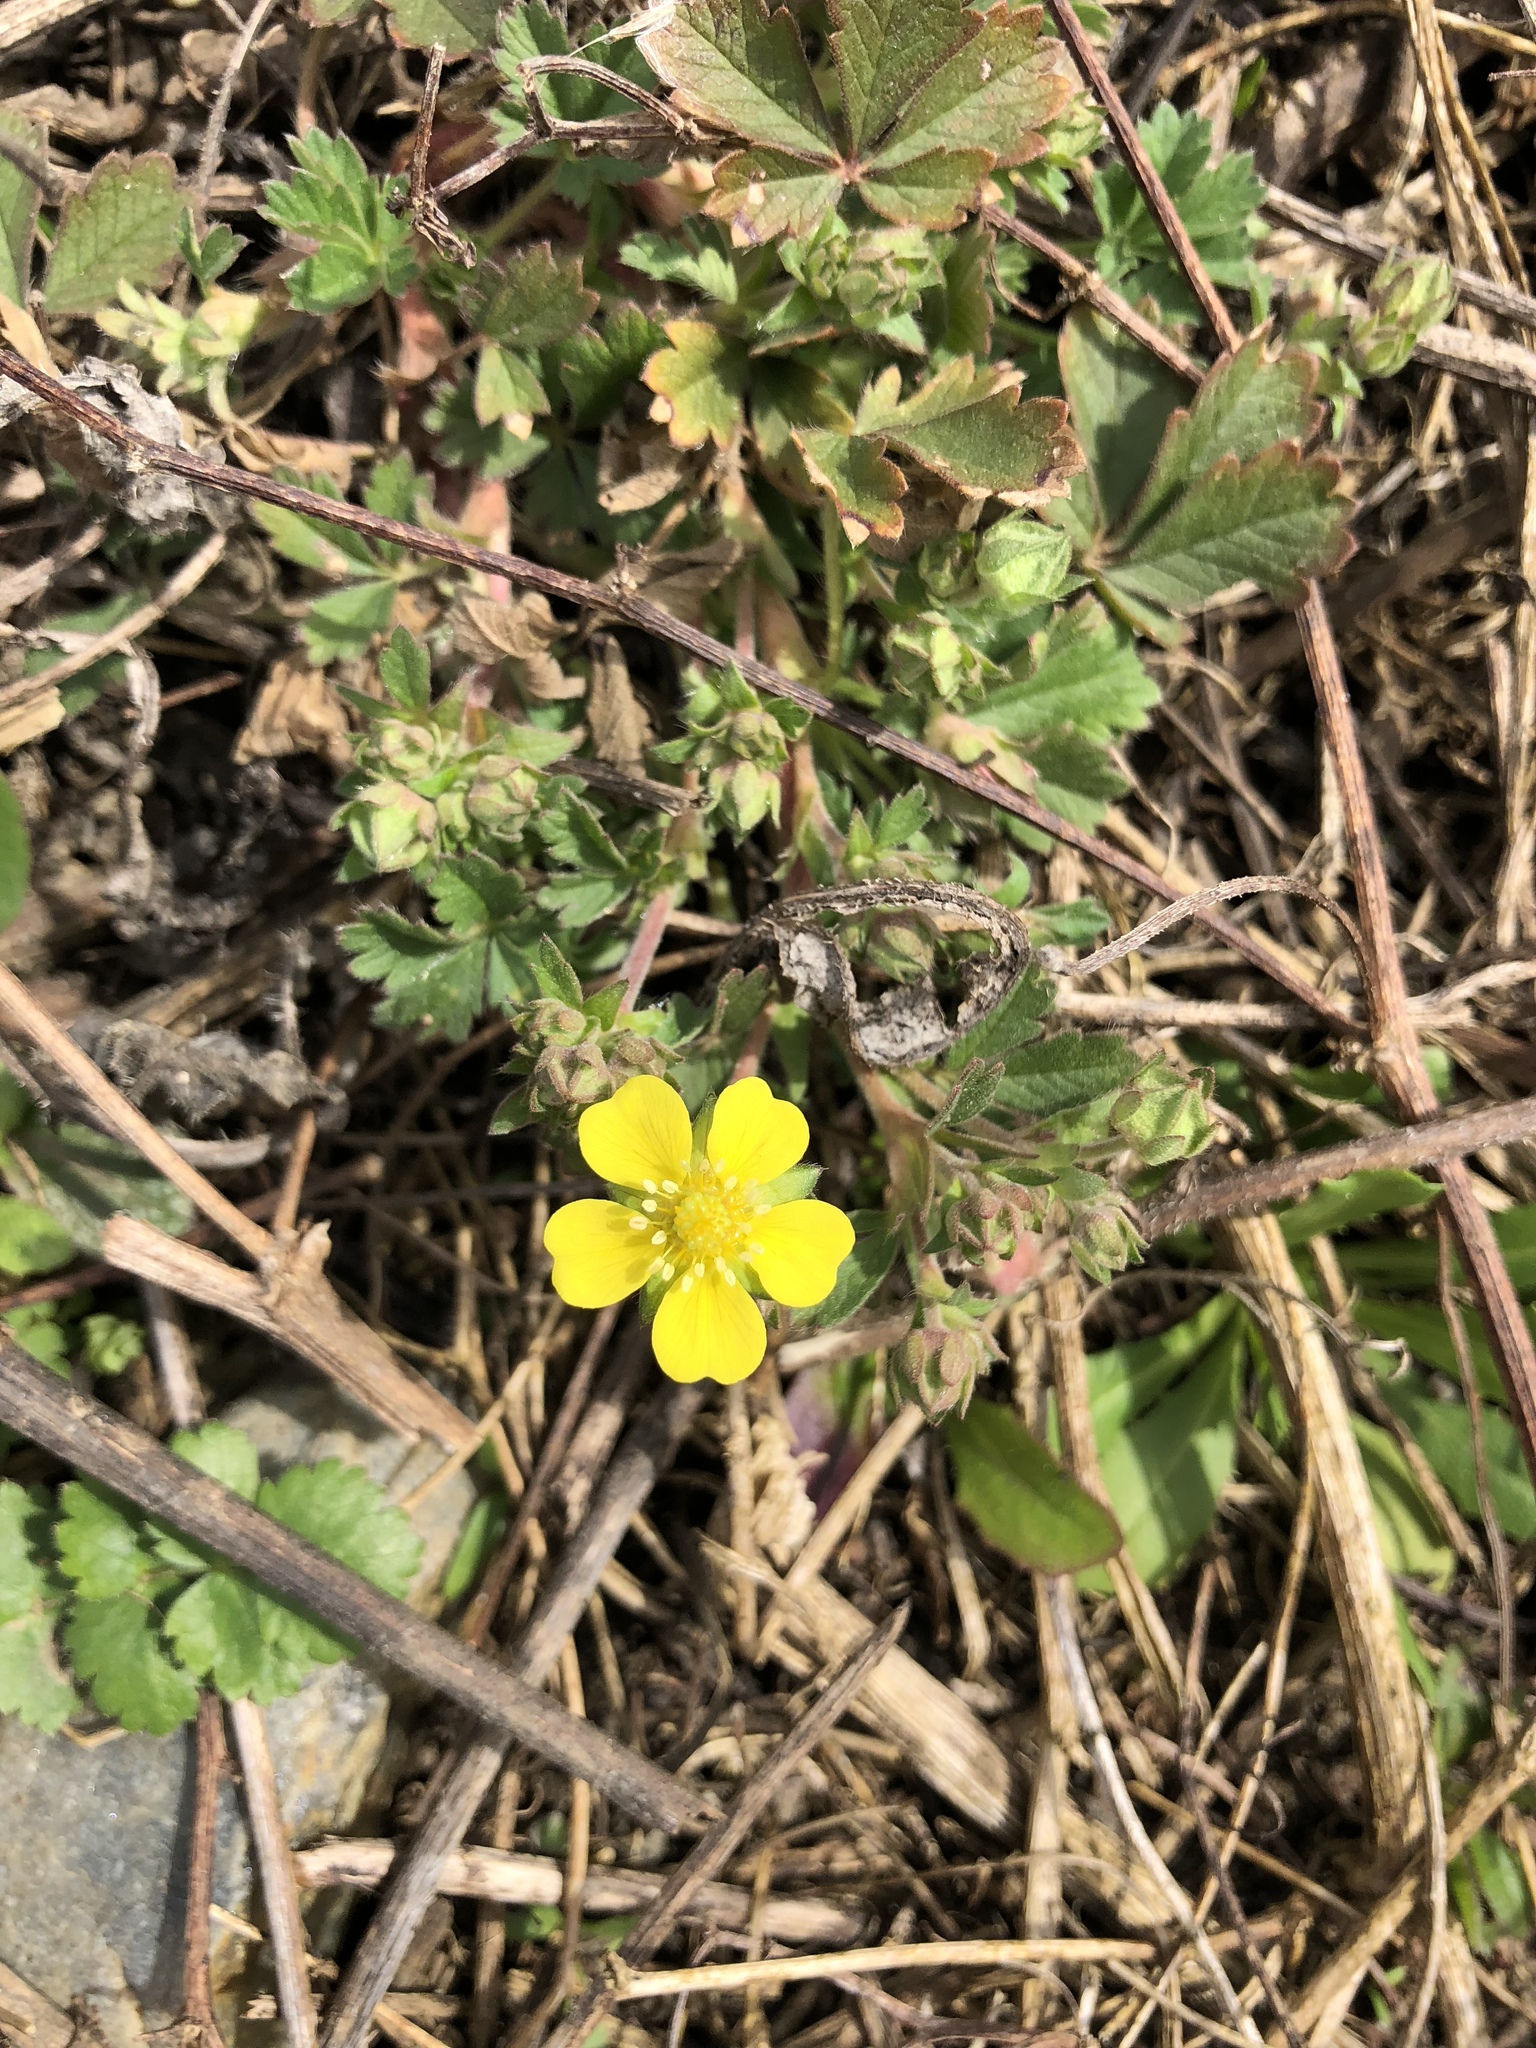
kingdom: Plantae
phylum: Tracheophyta
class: Magnoliopsida
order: Rosales
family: Rosaceae
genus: Potentilla
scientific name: Potentilla indica
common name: Yellow-flowered strawberry
